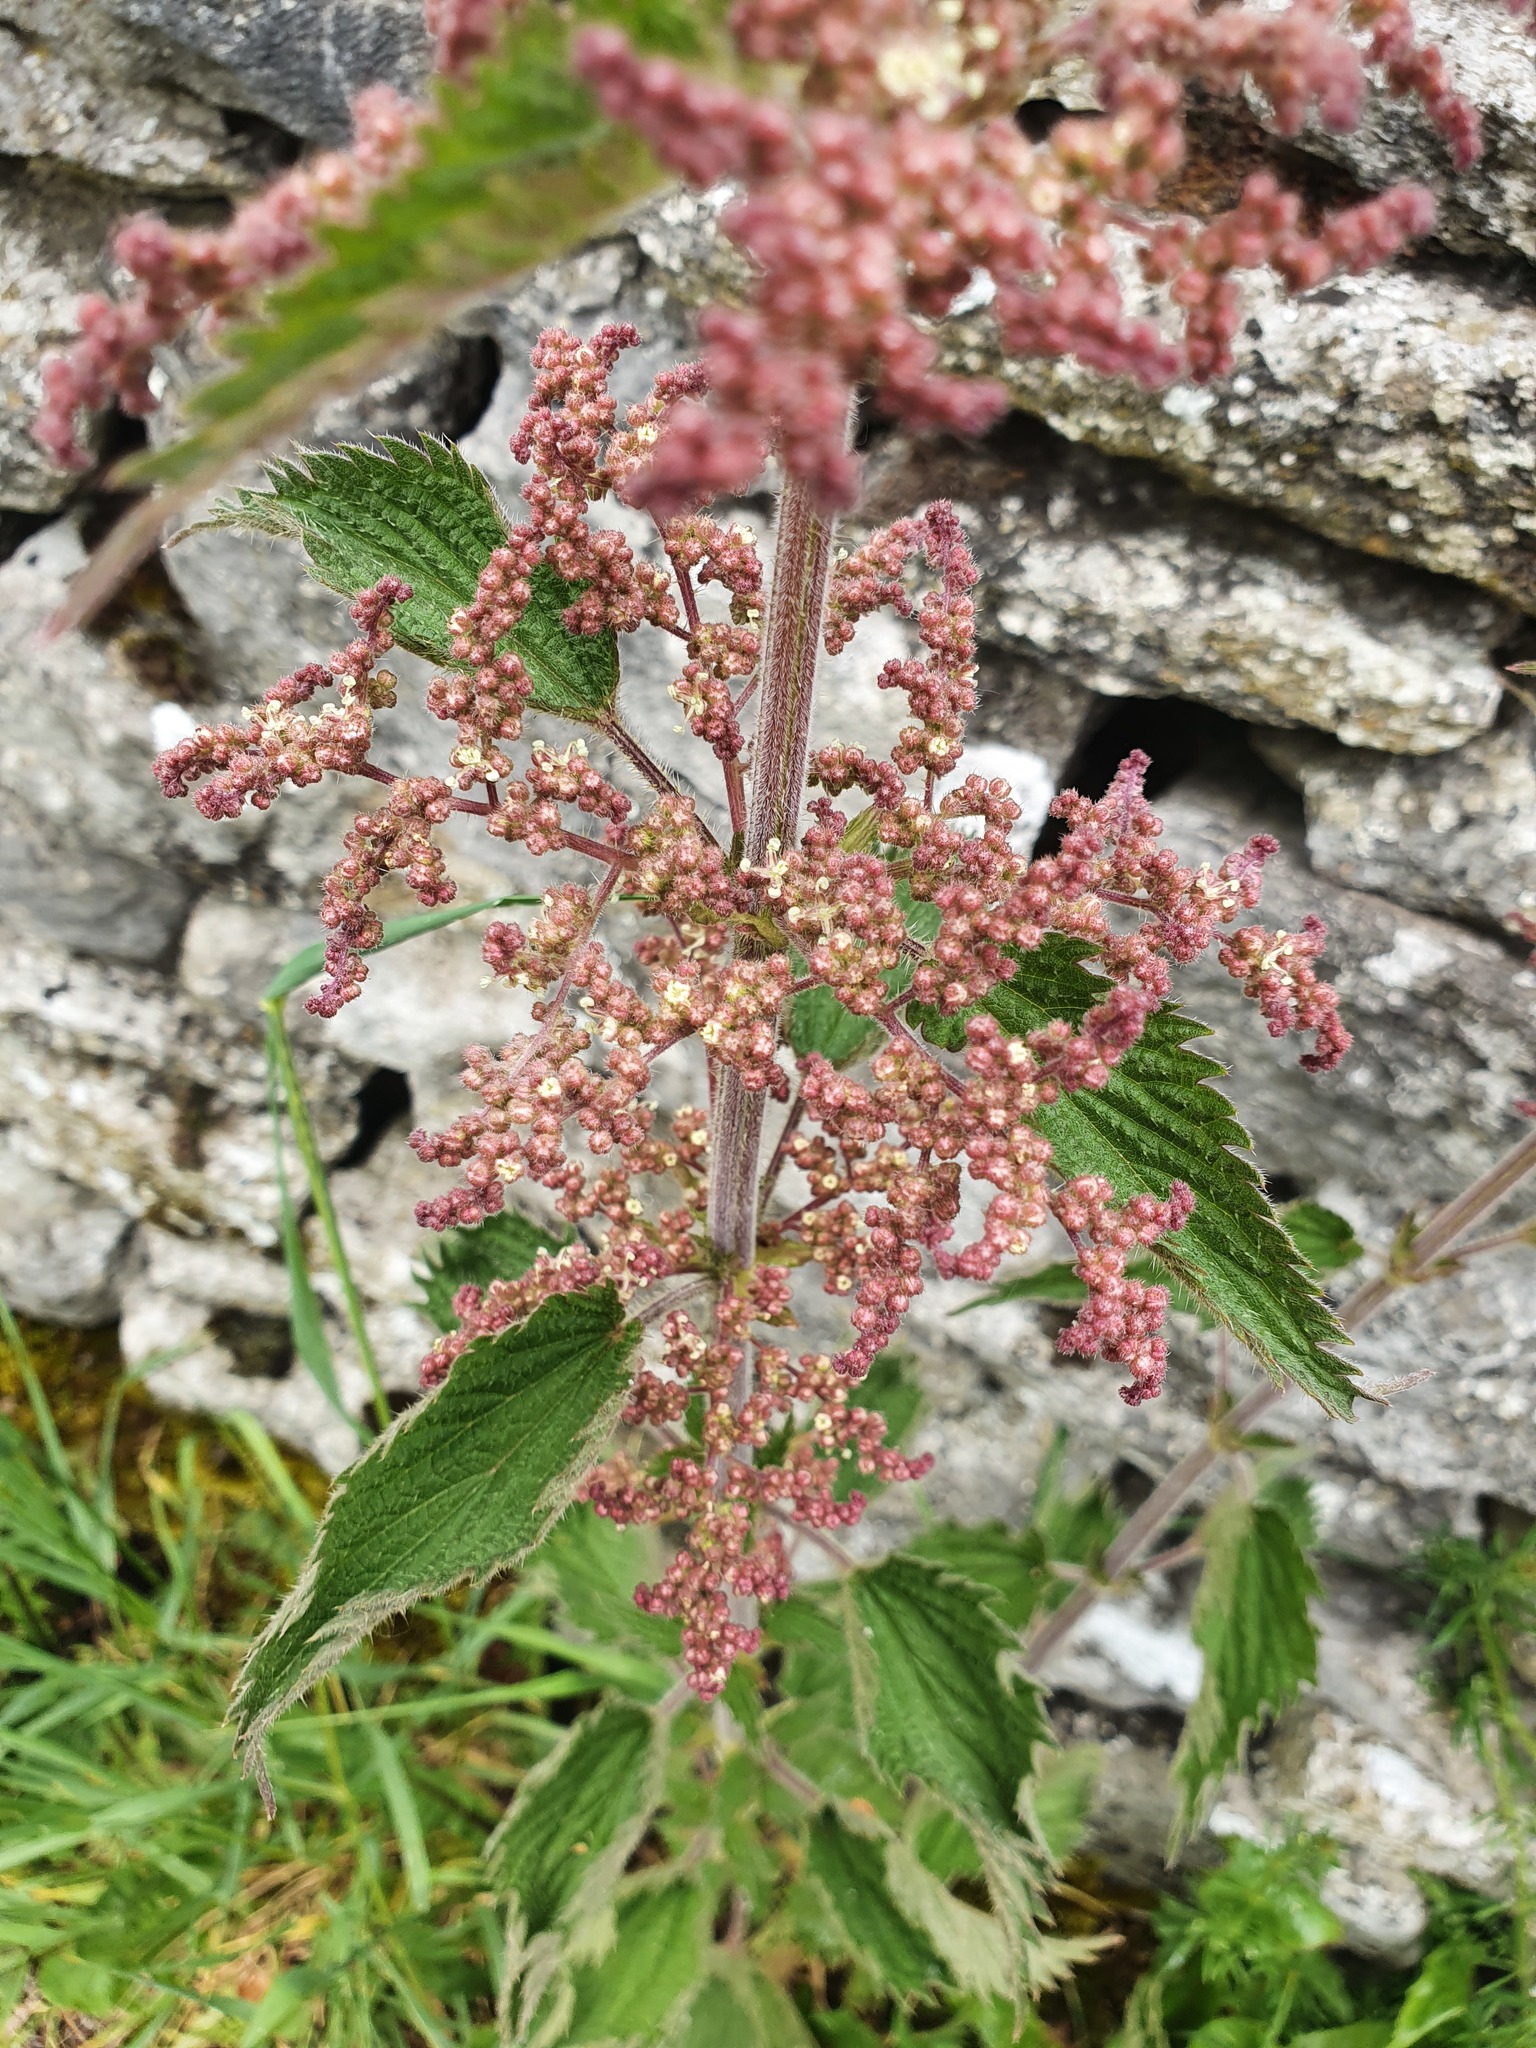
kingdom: Plantae
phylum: Tracheophyta
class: Magnoliopsida
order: Rosales
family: Urticaceae
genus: Urtica
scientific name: Urtica dioica
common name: Common nettle
